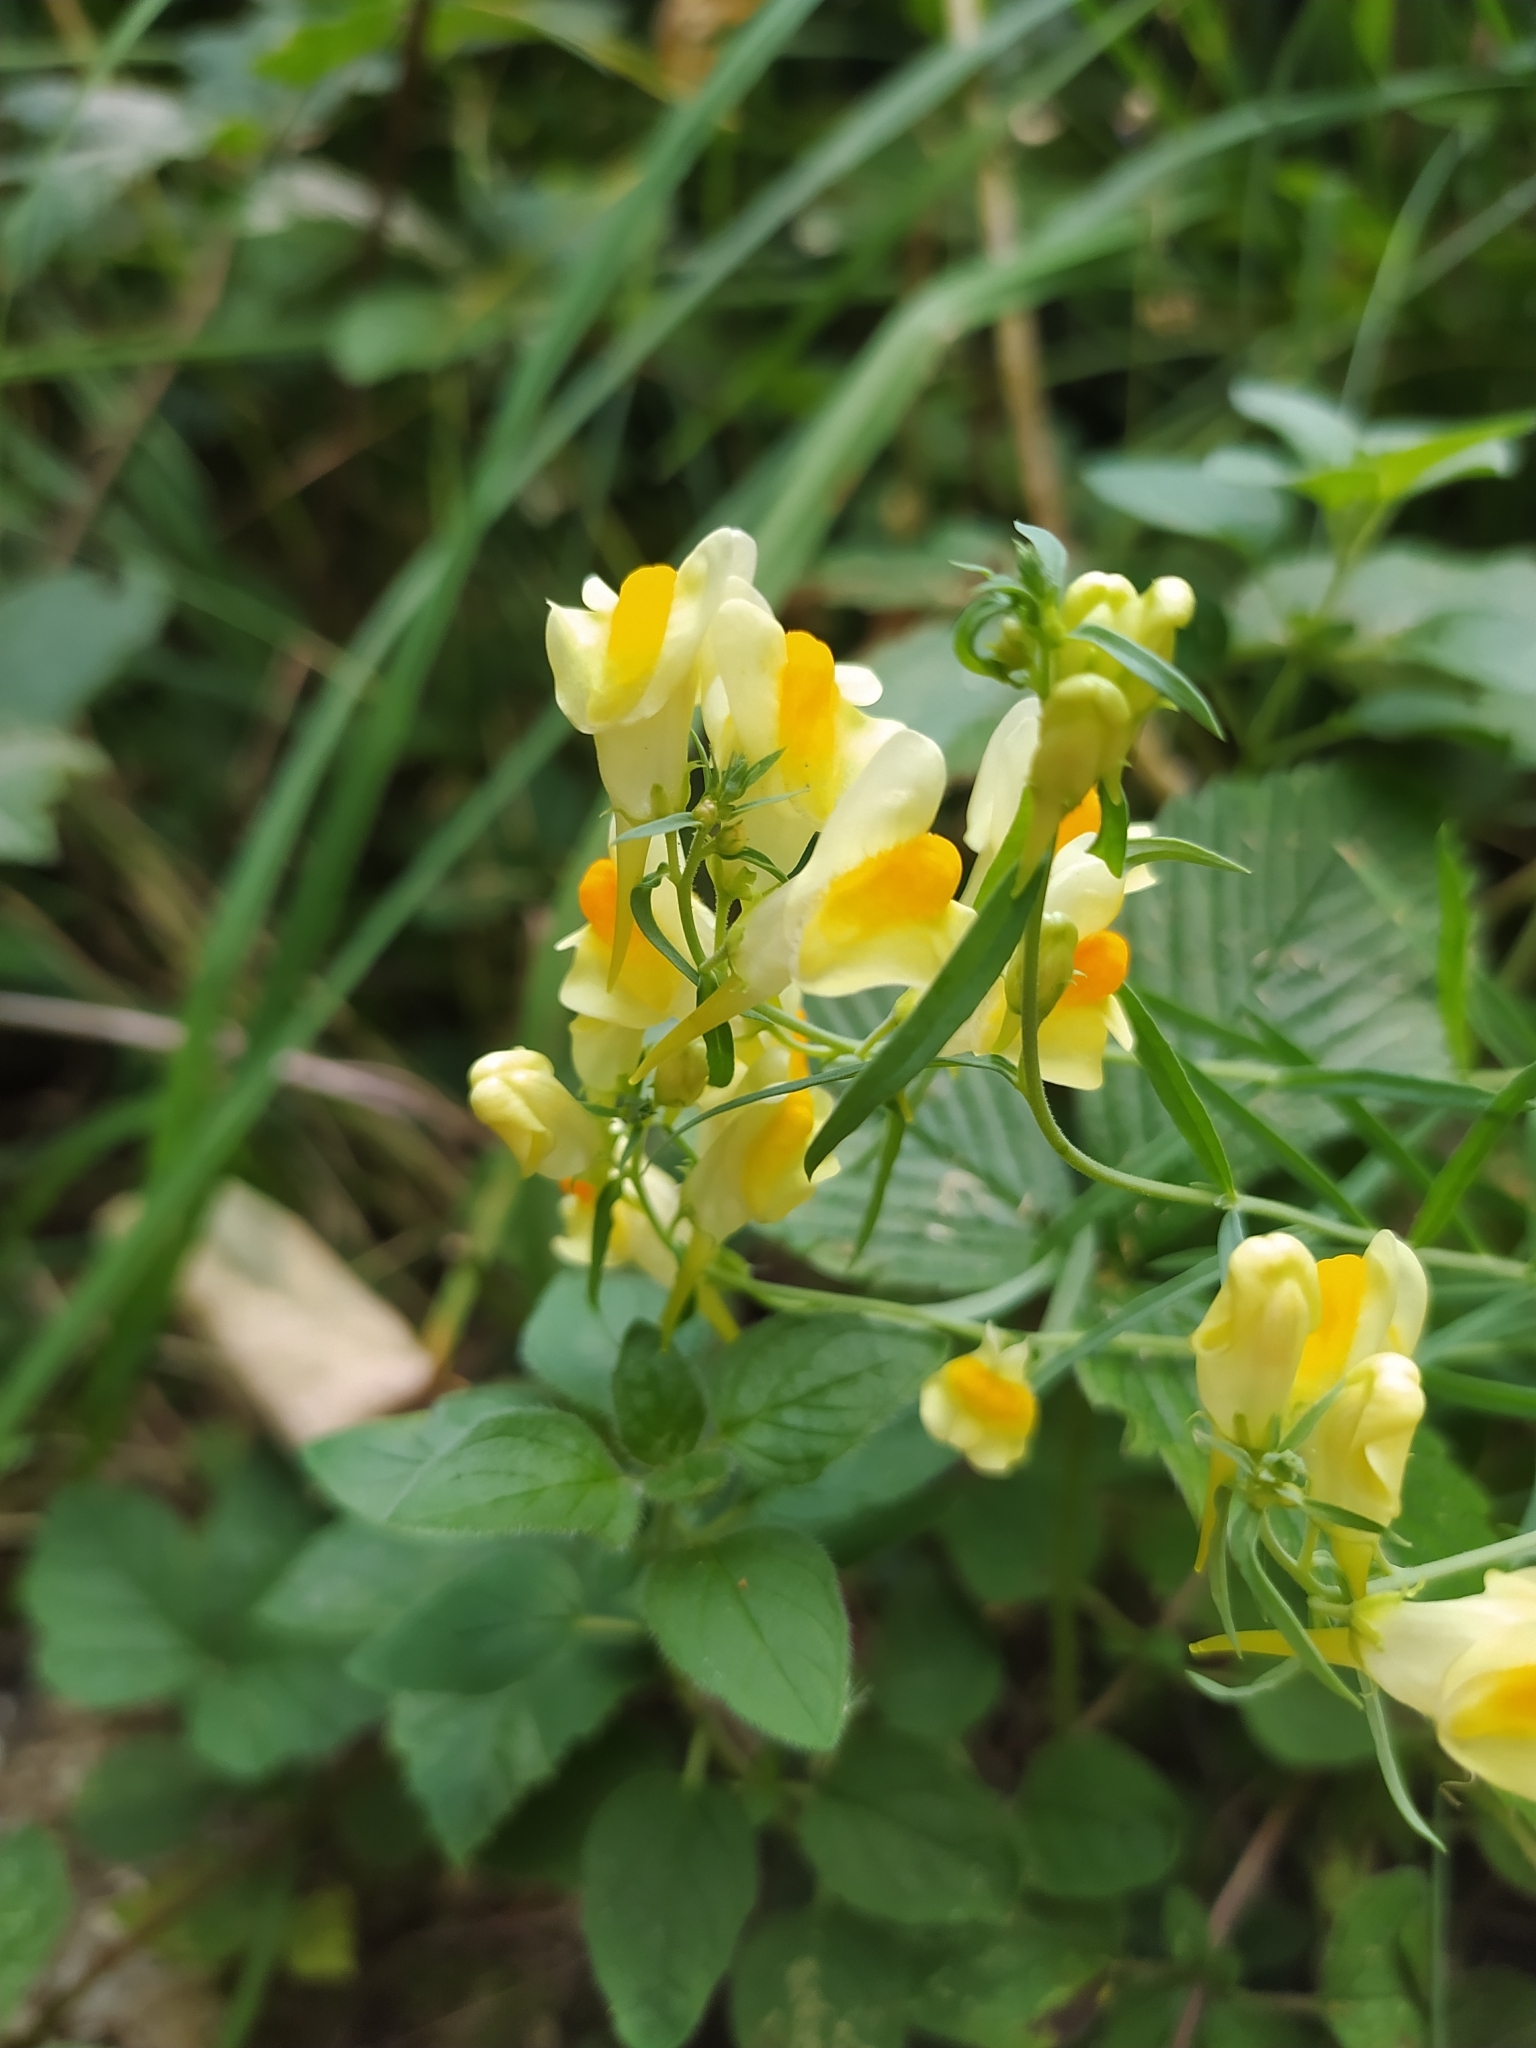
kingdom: Plantae
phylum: Tracheophyta
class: Magnoliopsida
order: Lamiales
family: Plantaginaceae
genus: Linaria
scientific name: Linaria vulgaris
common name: Butter and eggs
